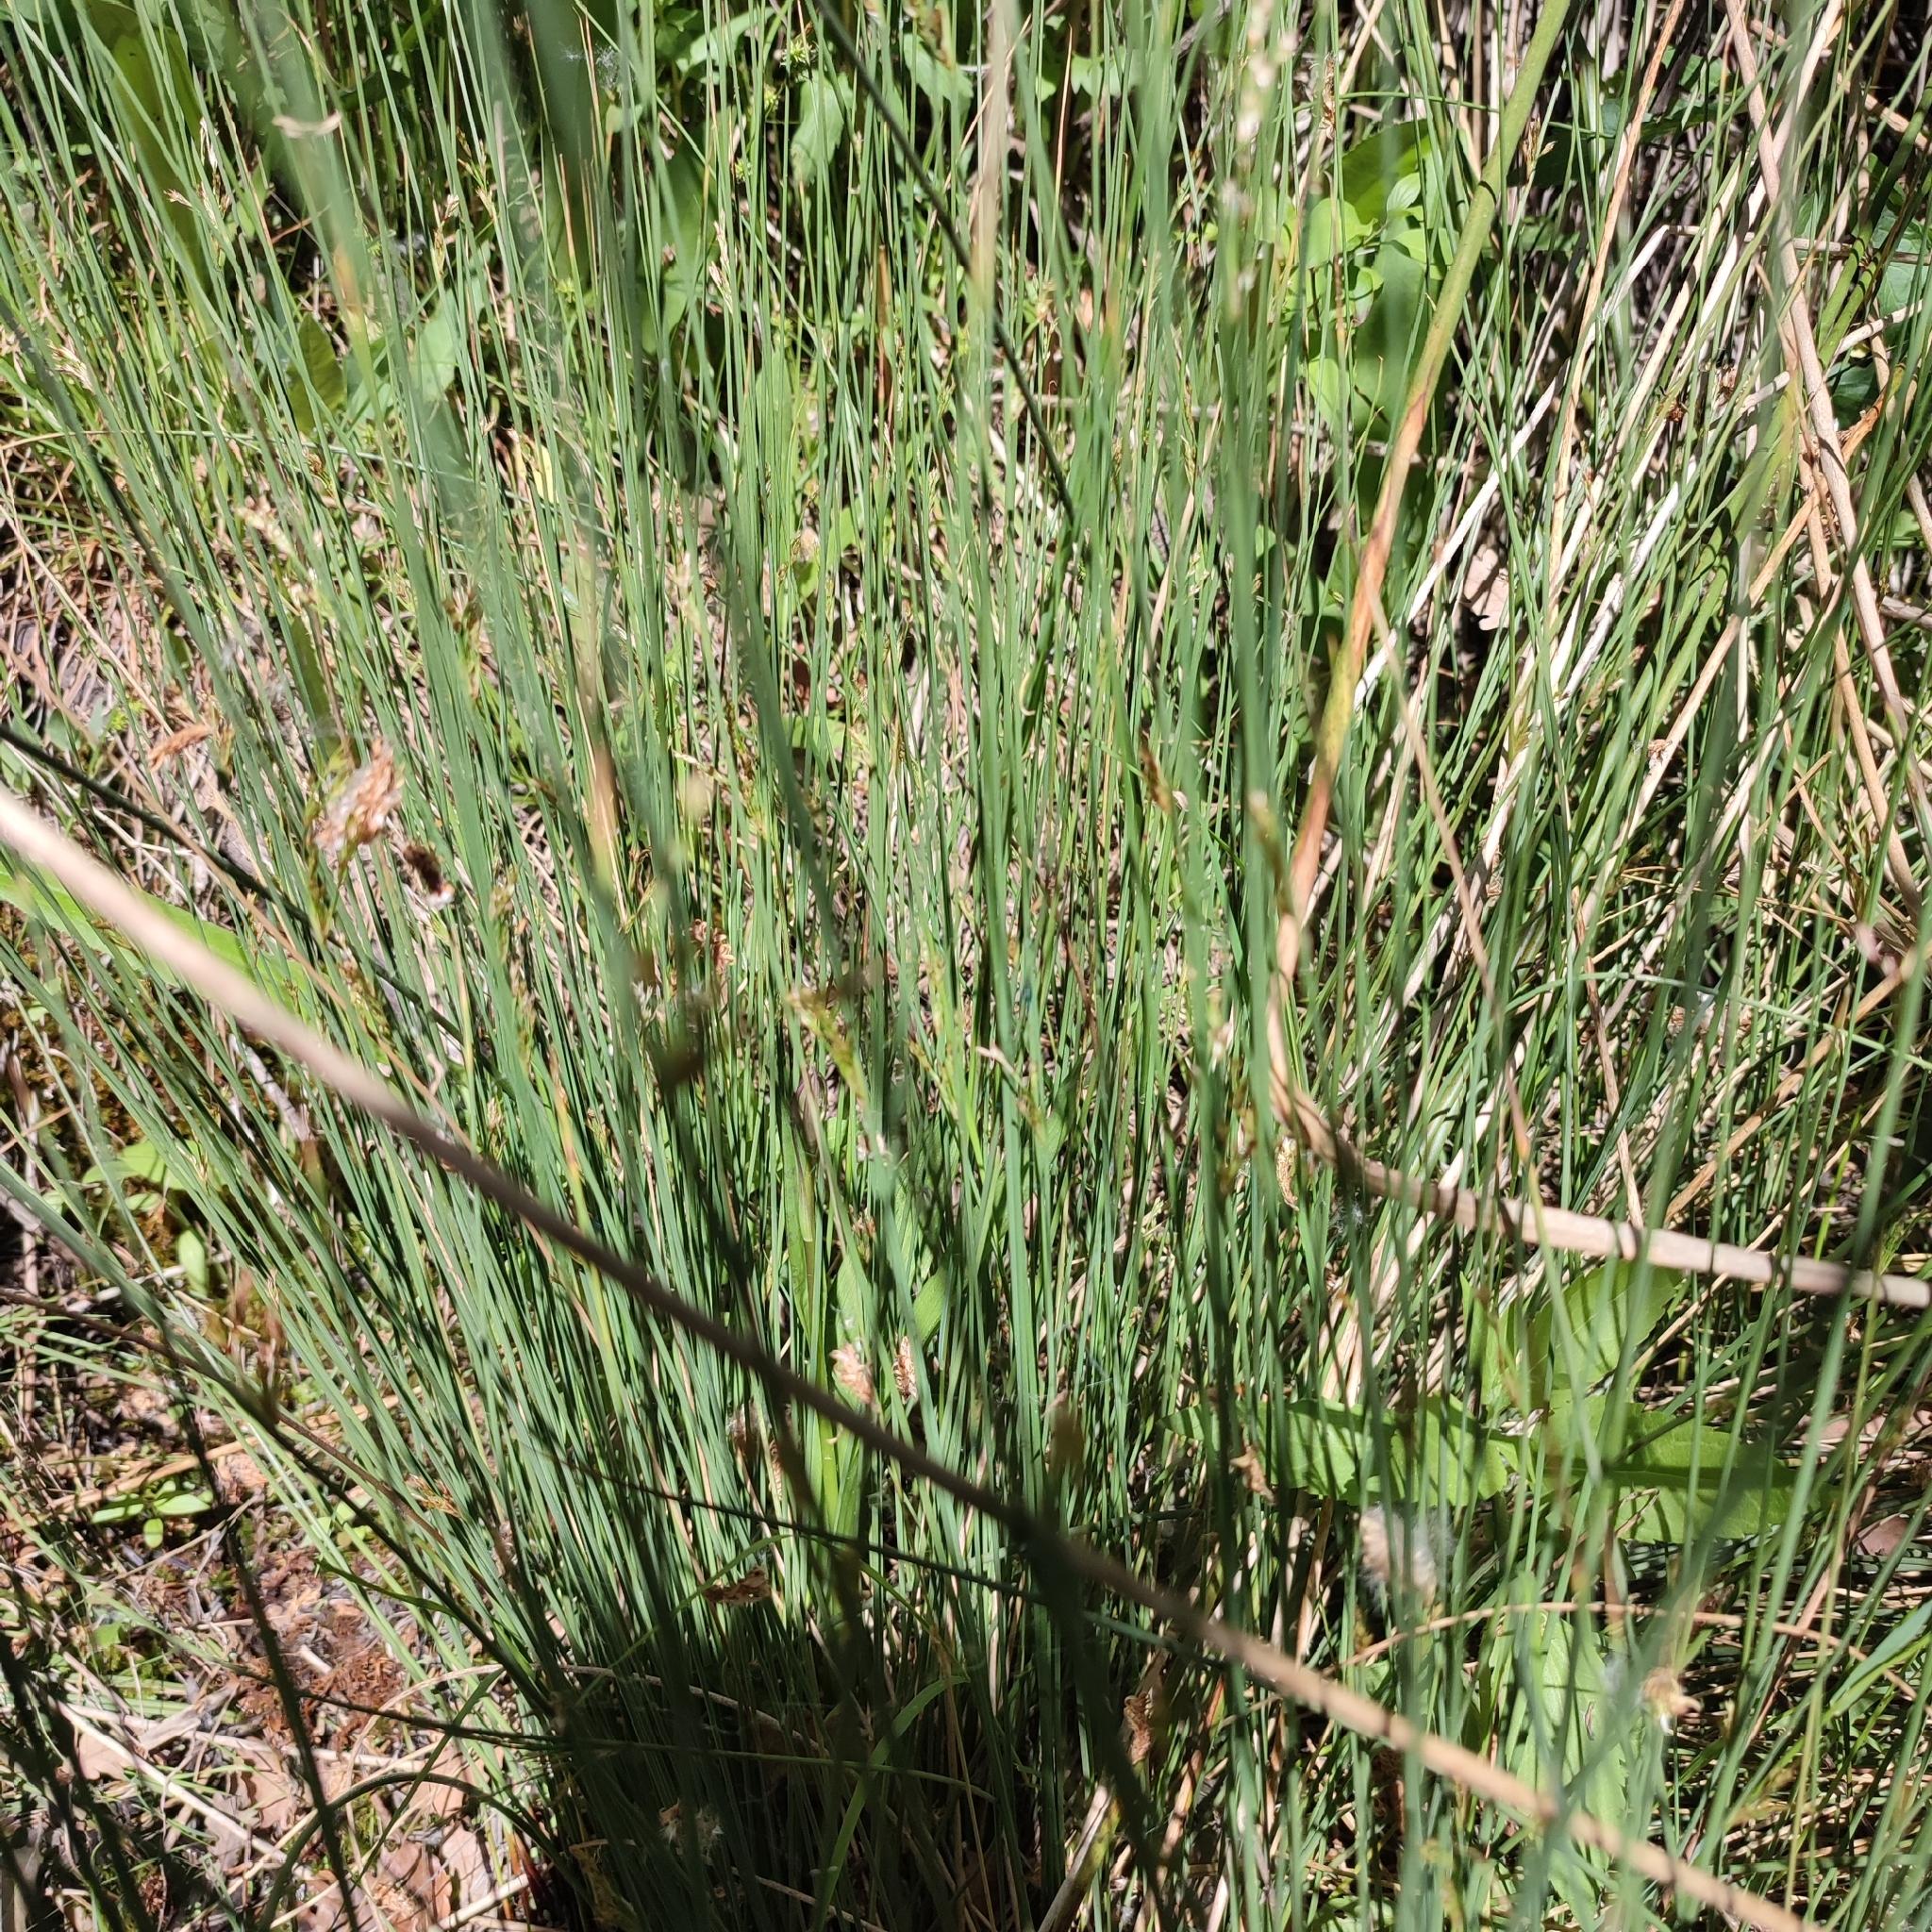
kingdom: Plantae
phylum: Tracheophyta
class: Liliopsida
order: Poales
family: Juncaceae
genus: Juncus
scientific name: Juncus inflexus
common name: Hard rush
